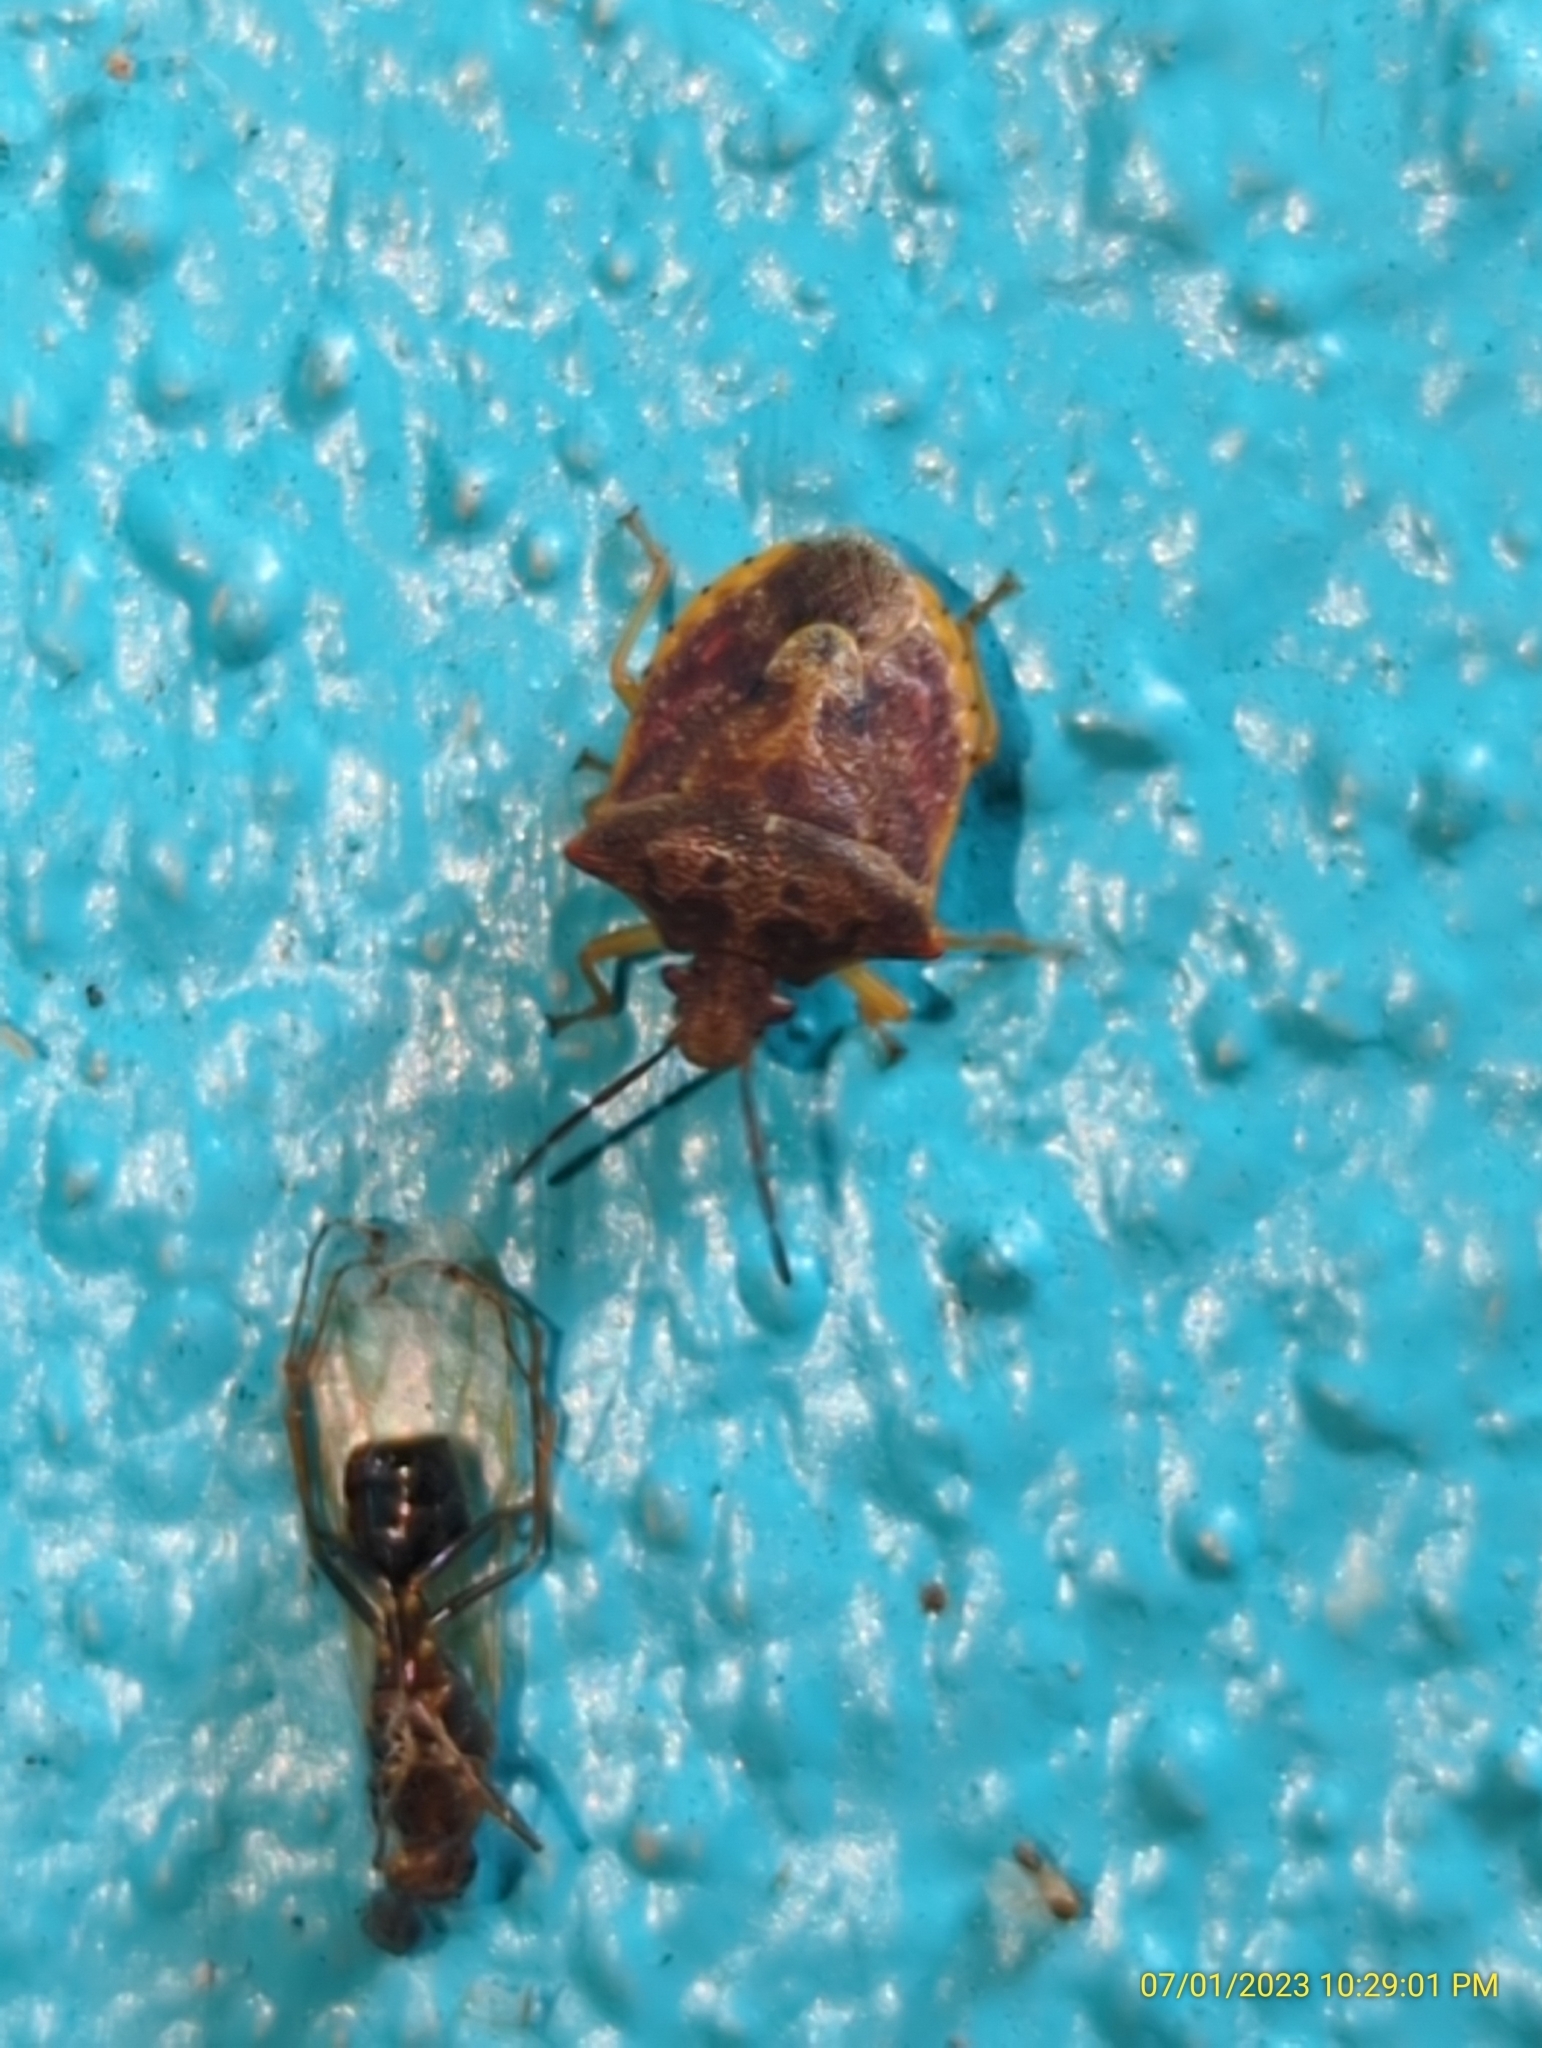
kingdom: Animalia
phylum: Arthropoda
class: Insecta
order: Hemiptera
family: Pentatomidae
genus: Dendrocoris
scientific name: Dendrocoris humeralis
